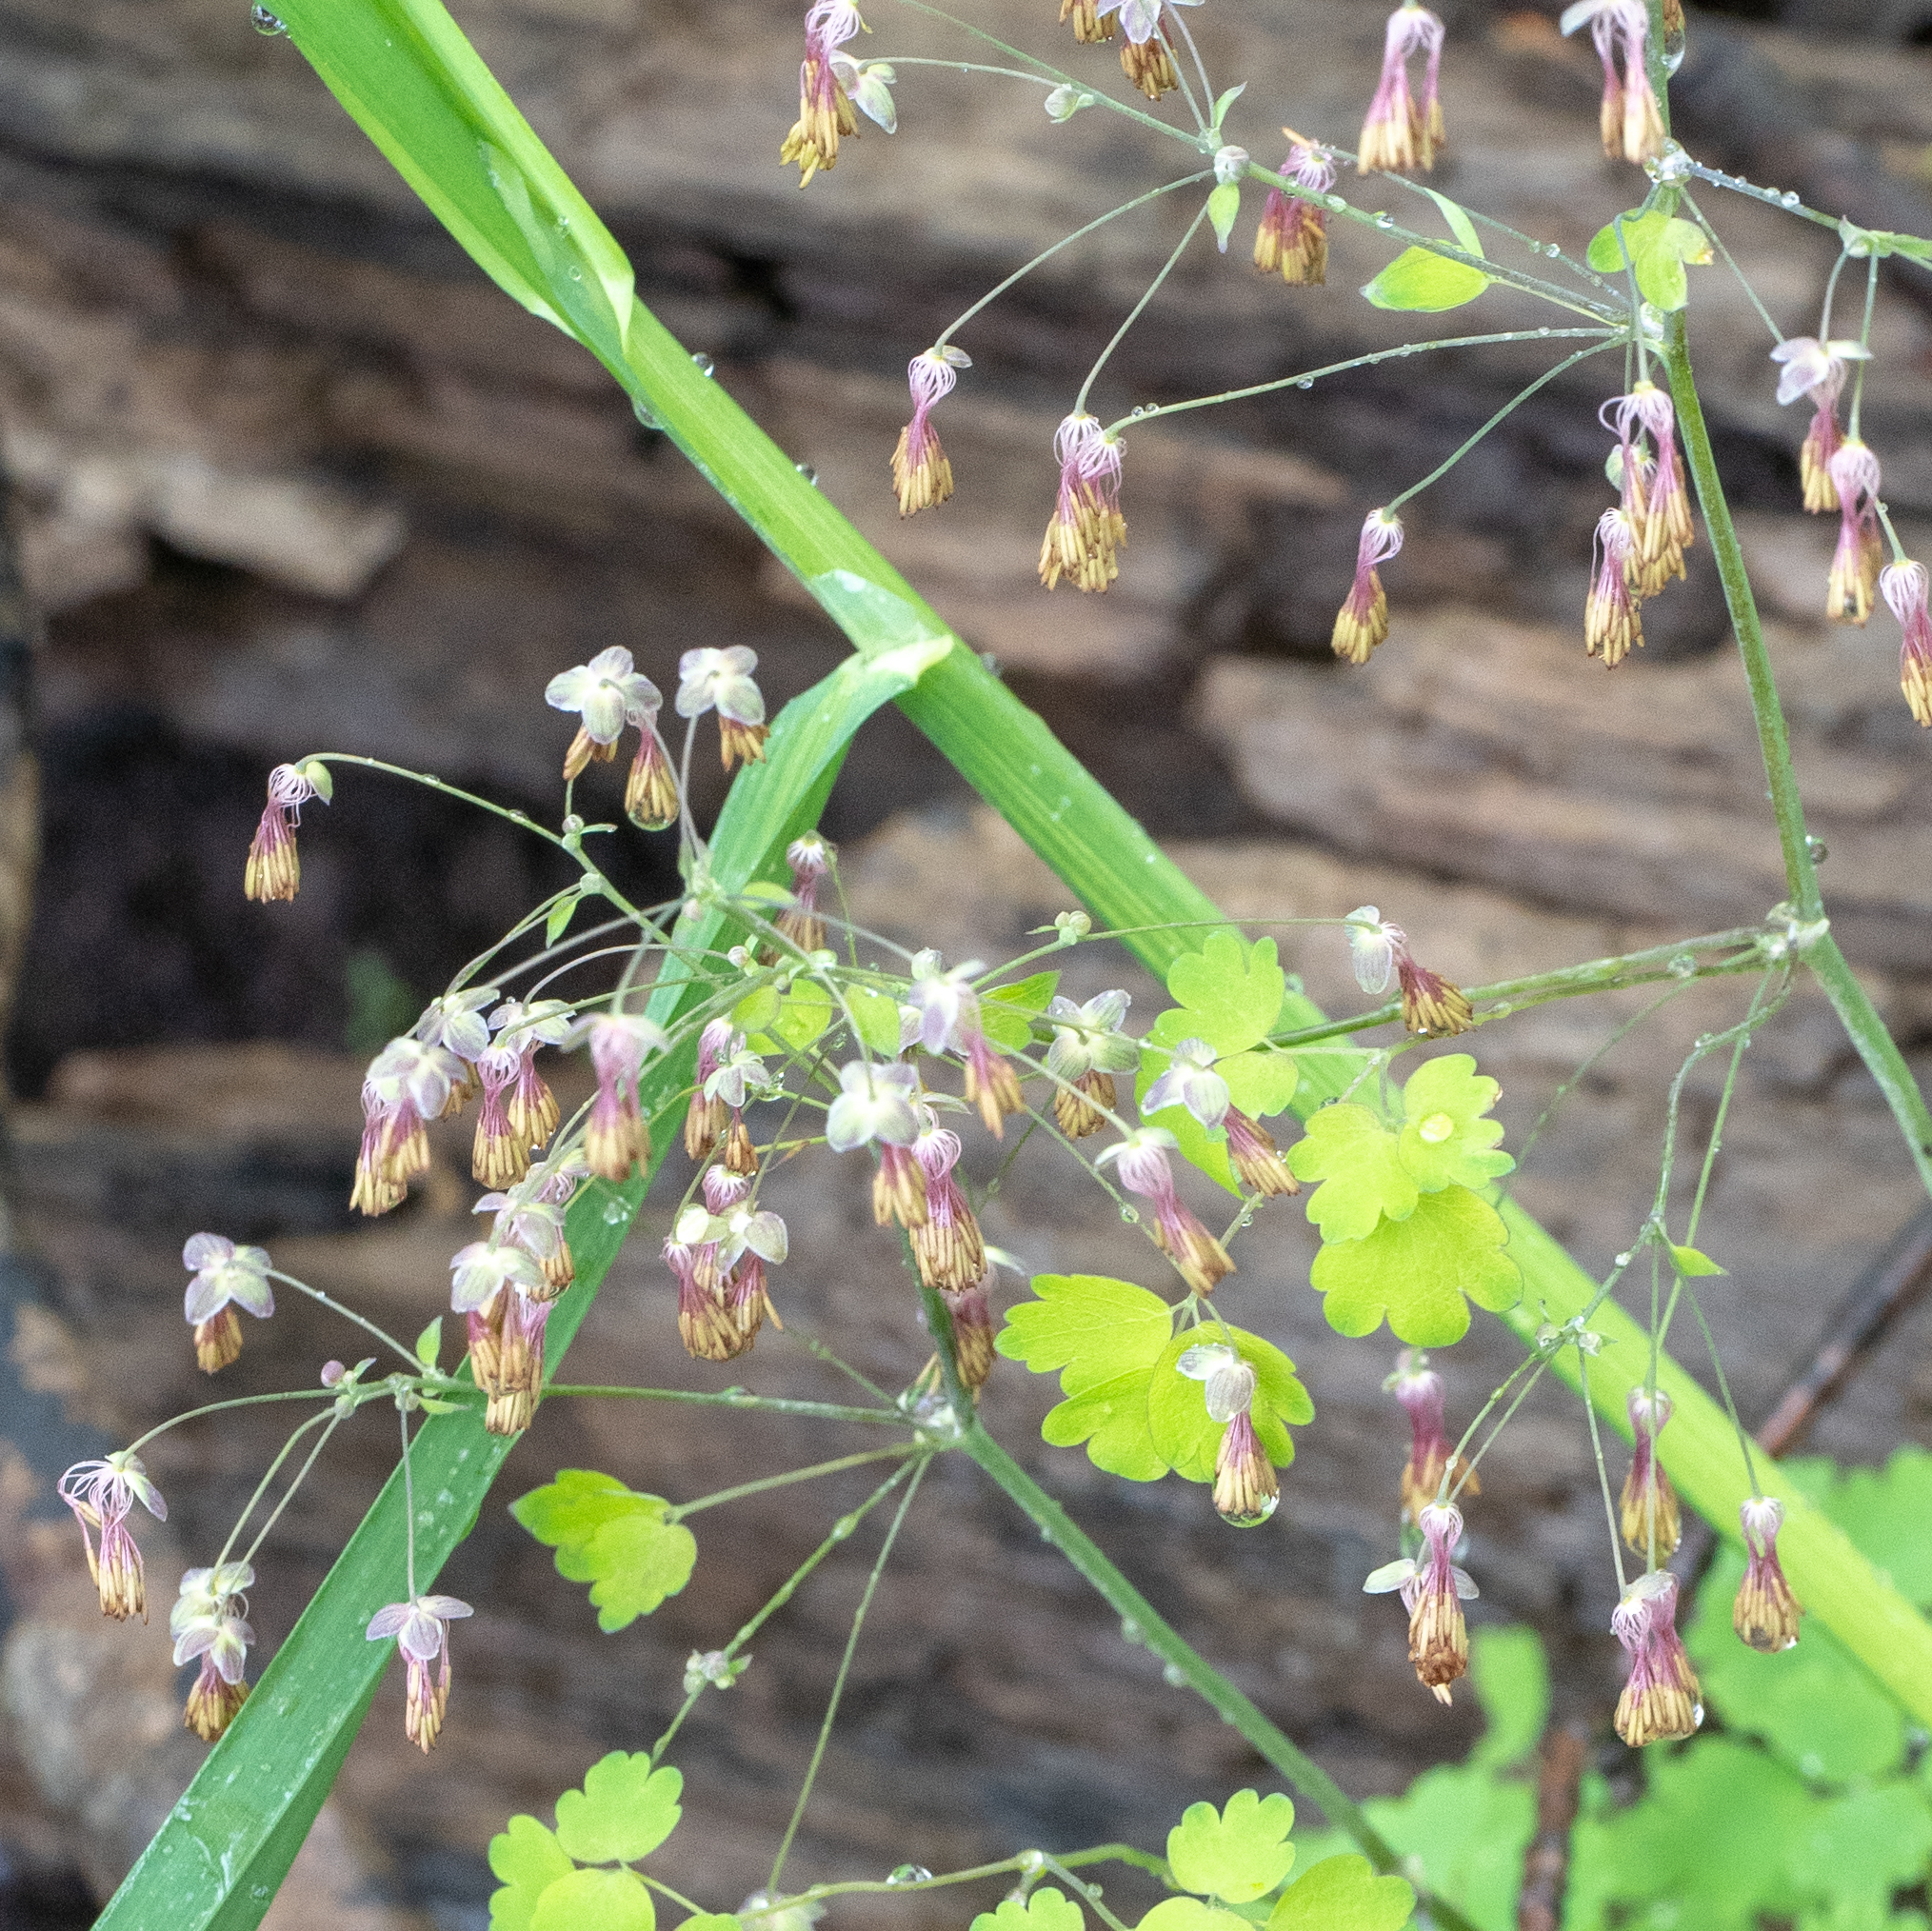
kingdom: Plantae
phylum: Tracheophyta
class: Magnoliopsida
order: Ranunculales
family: Ranunculaceae
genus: Thalictrum
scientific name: Thalictrum dioicum
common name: Early meadow-rue
